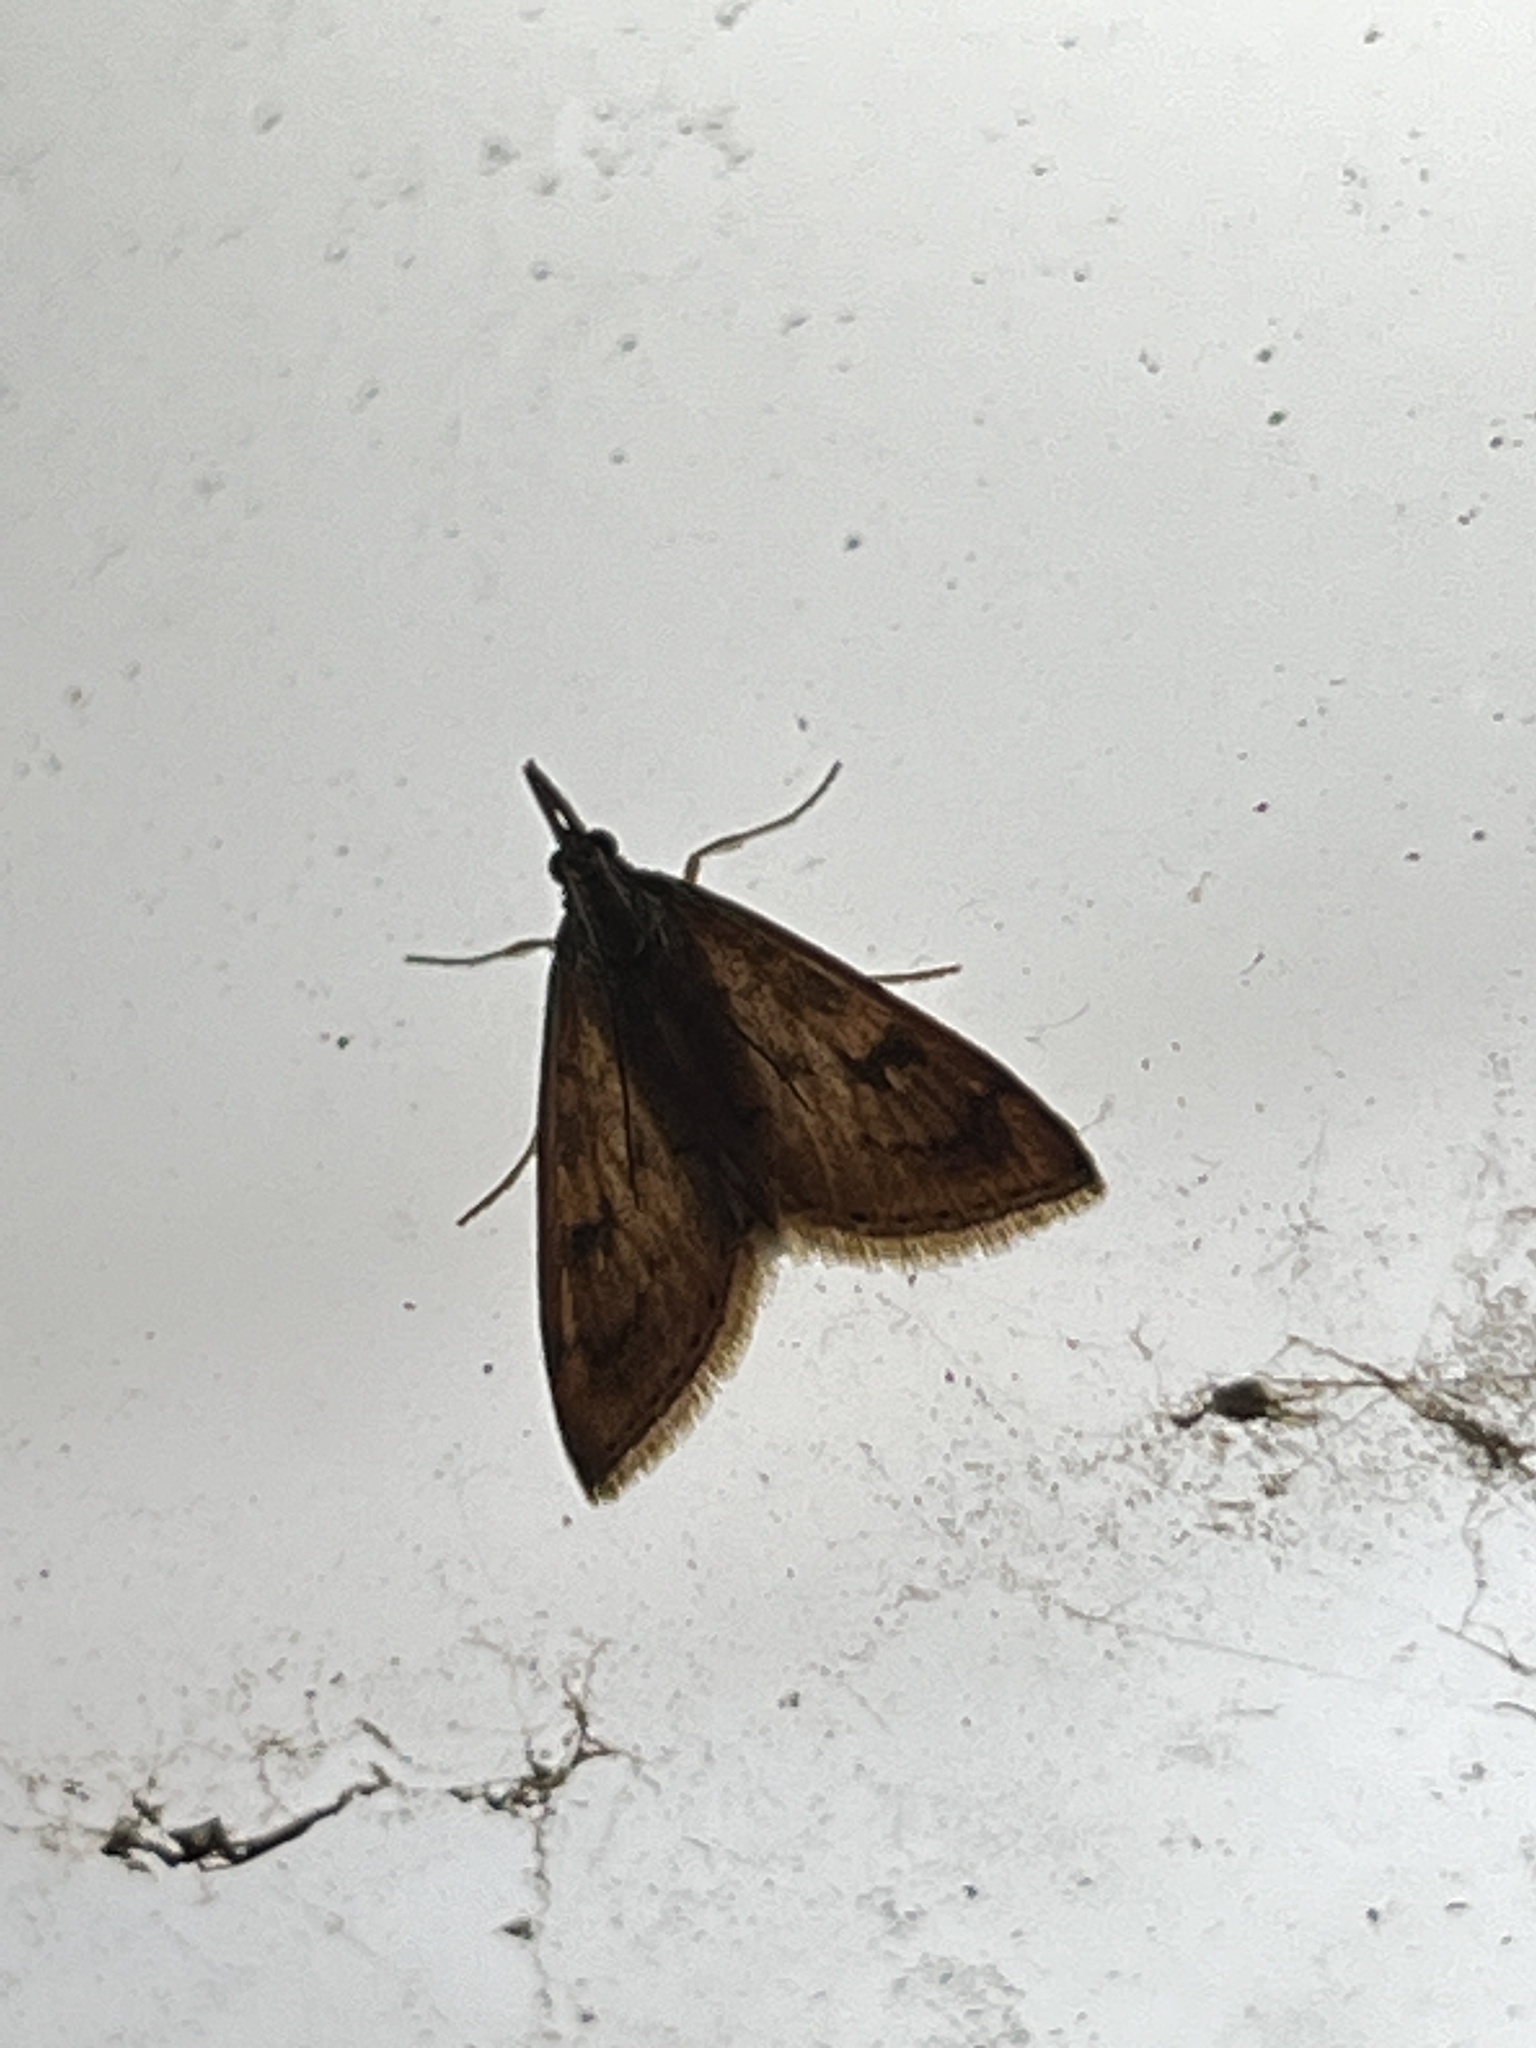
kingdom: Animalia
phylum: Arthropoda
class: Insecta
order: Lepidoptera
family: Crambidae
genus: Udea
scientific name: Udea rubigalis
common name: Celery leaftier moth
